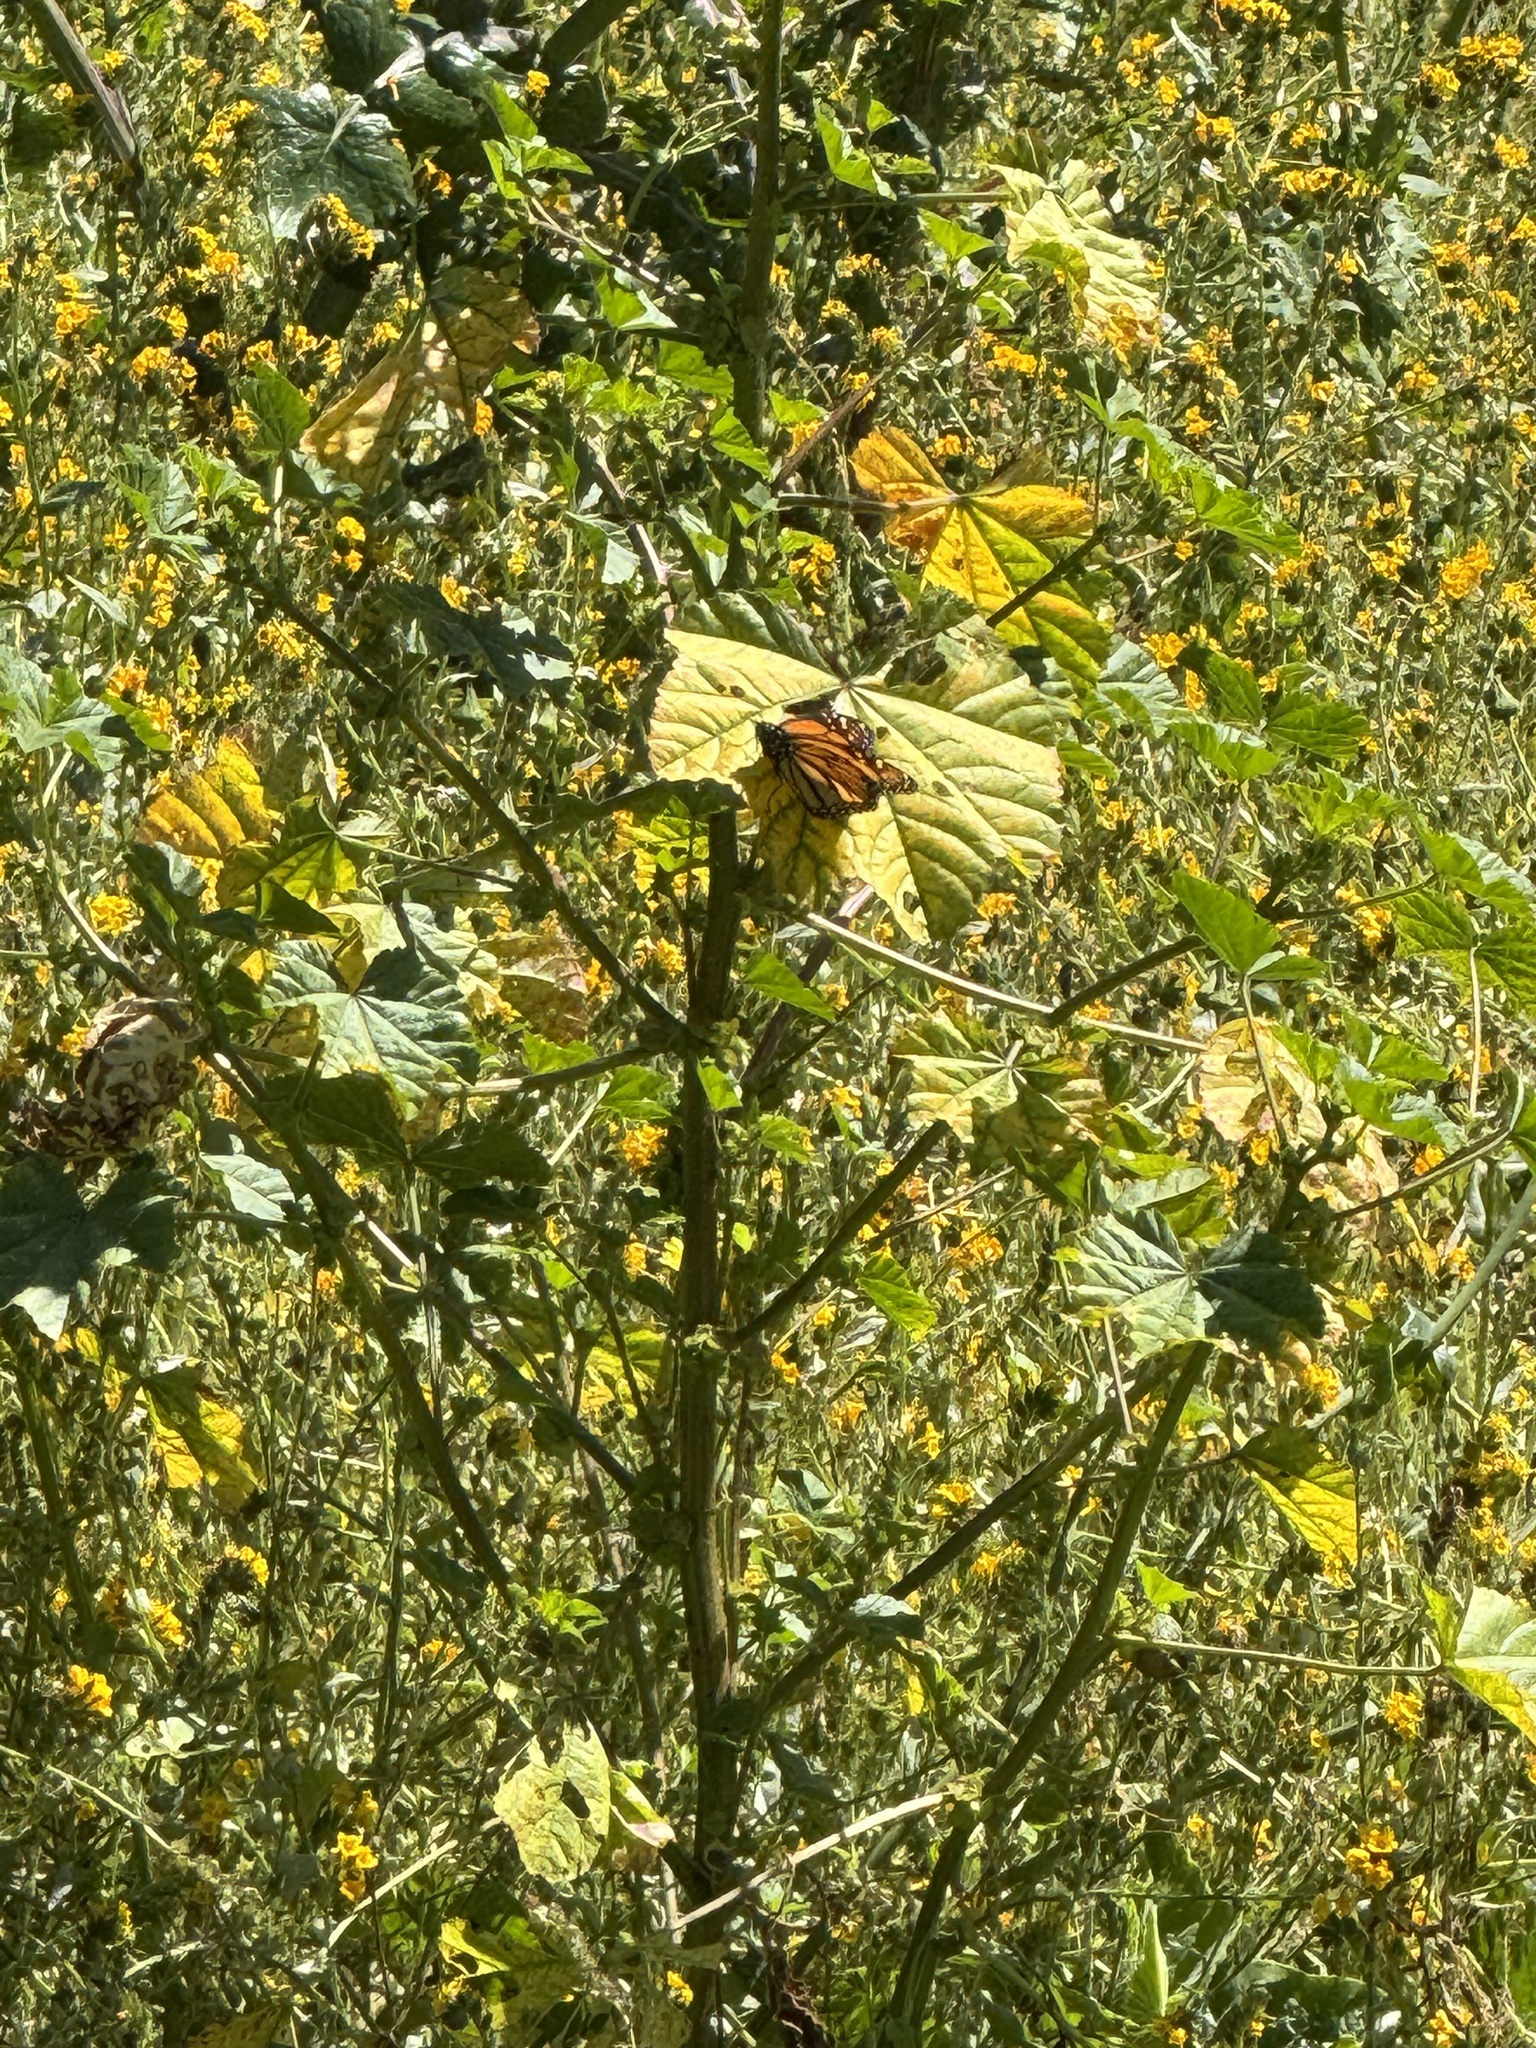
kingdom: Animalia
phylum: Arthropoda
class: Insecta
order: Lepidoptera
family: Nymphalidae
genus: Danaus
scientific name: Danaus plexippus
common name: Monarch
